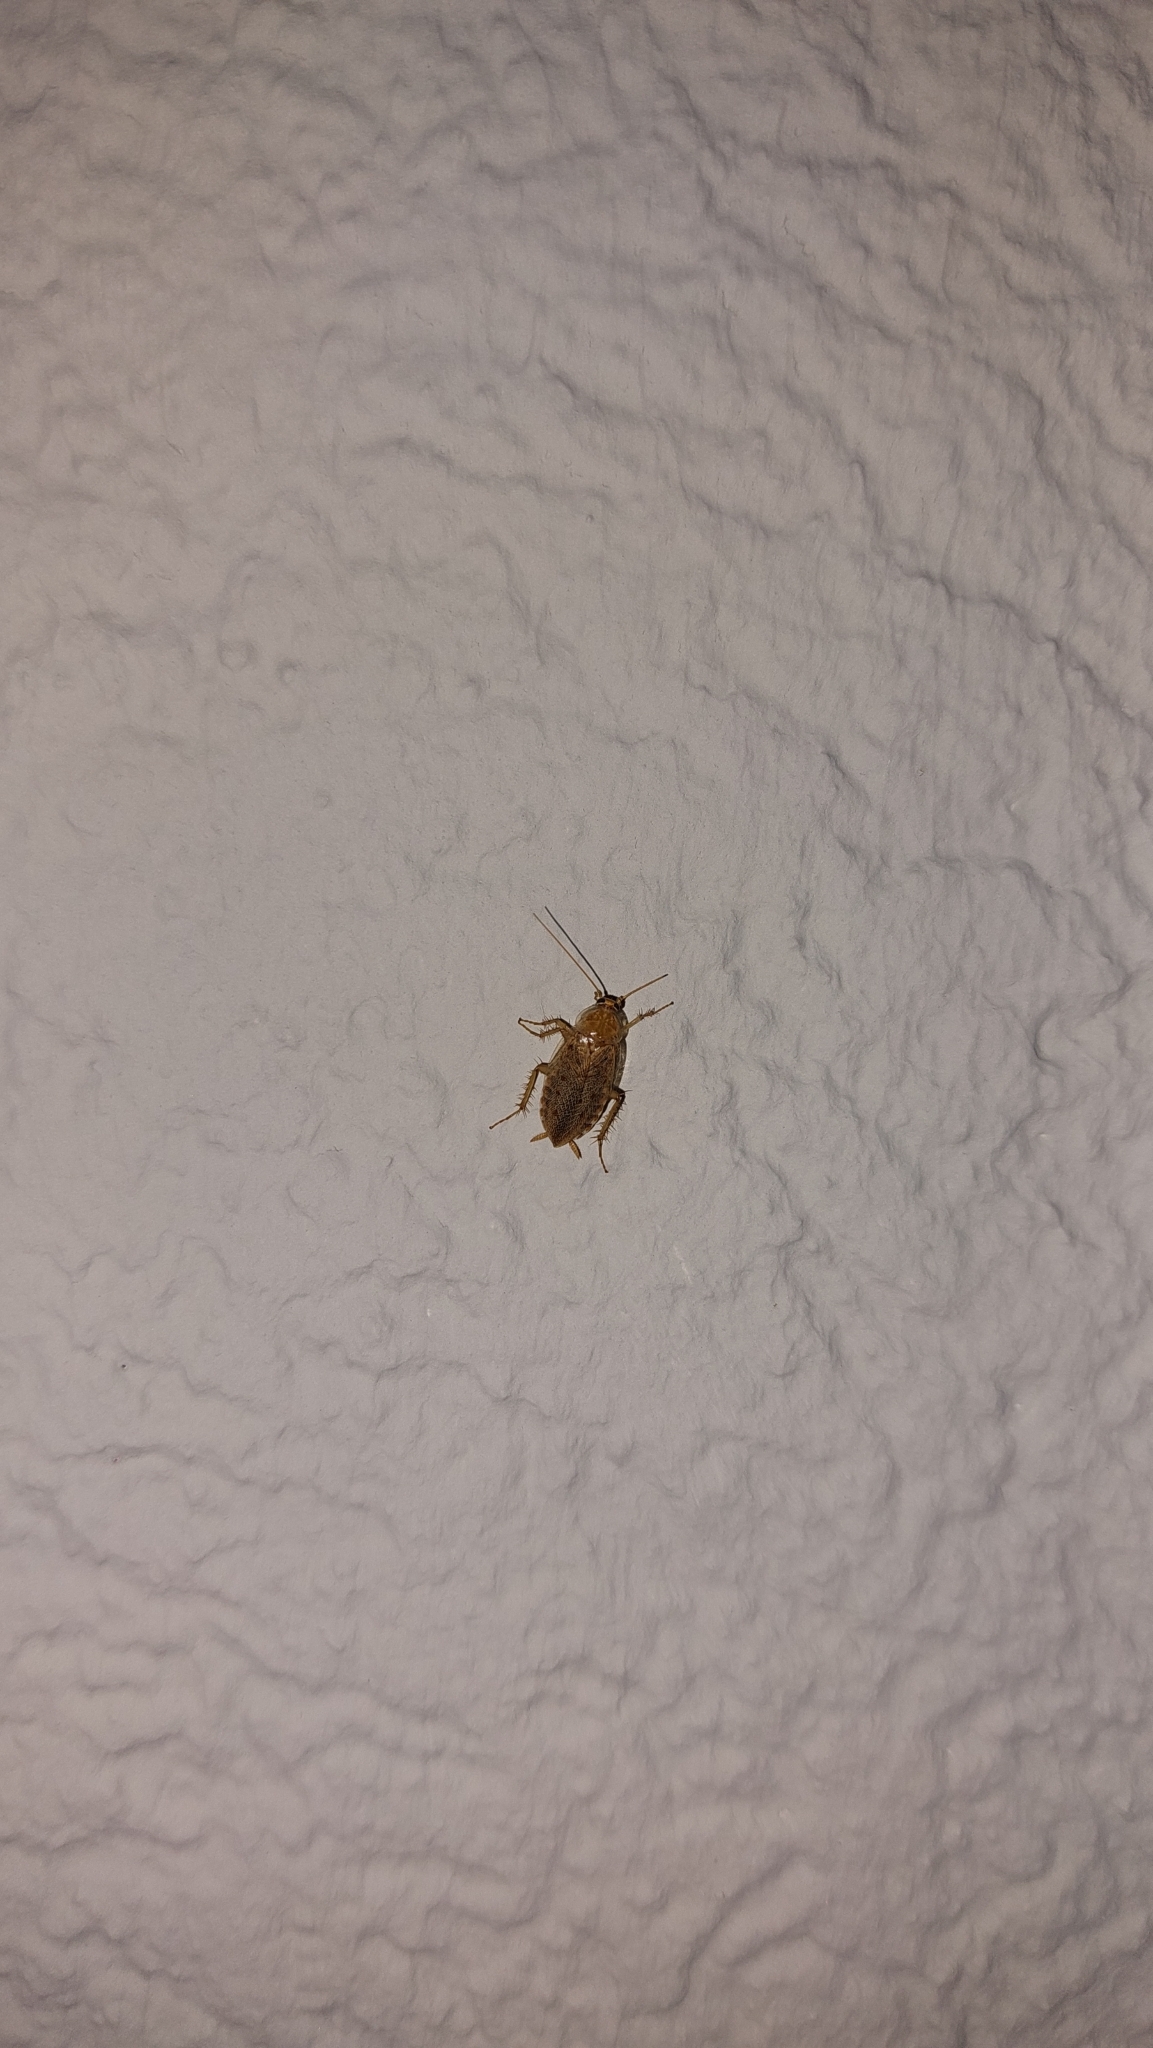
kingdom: Animalia
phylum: Arthropoda
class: Insecta
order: Blattodea
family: Ectobiidae
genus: Ectobius
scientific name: Ectobius vittiventris
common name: Garden cockroach
